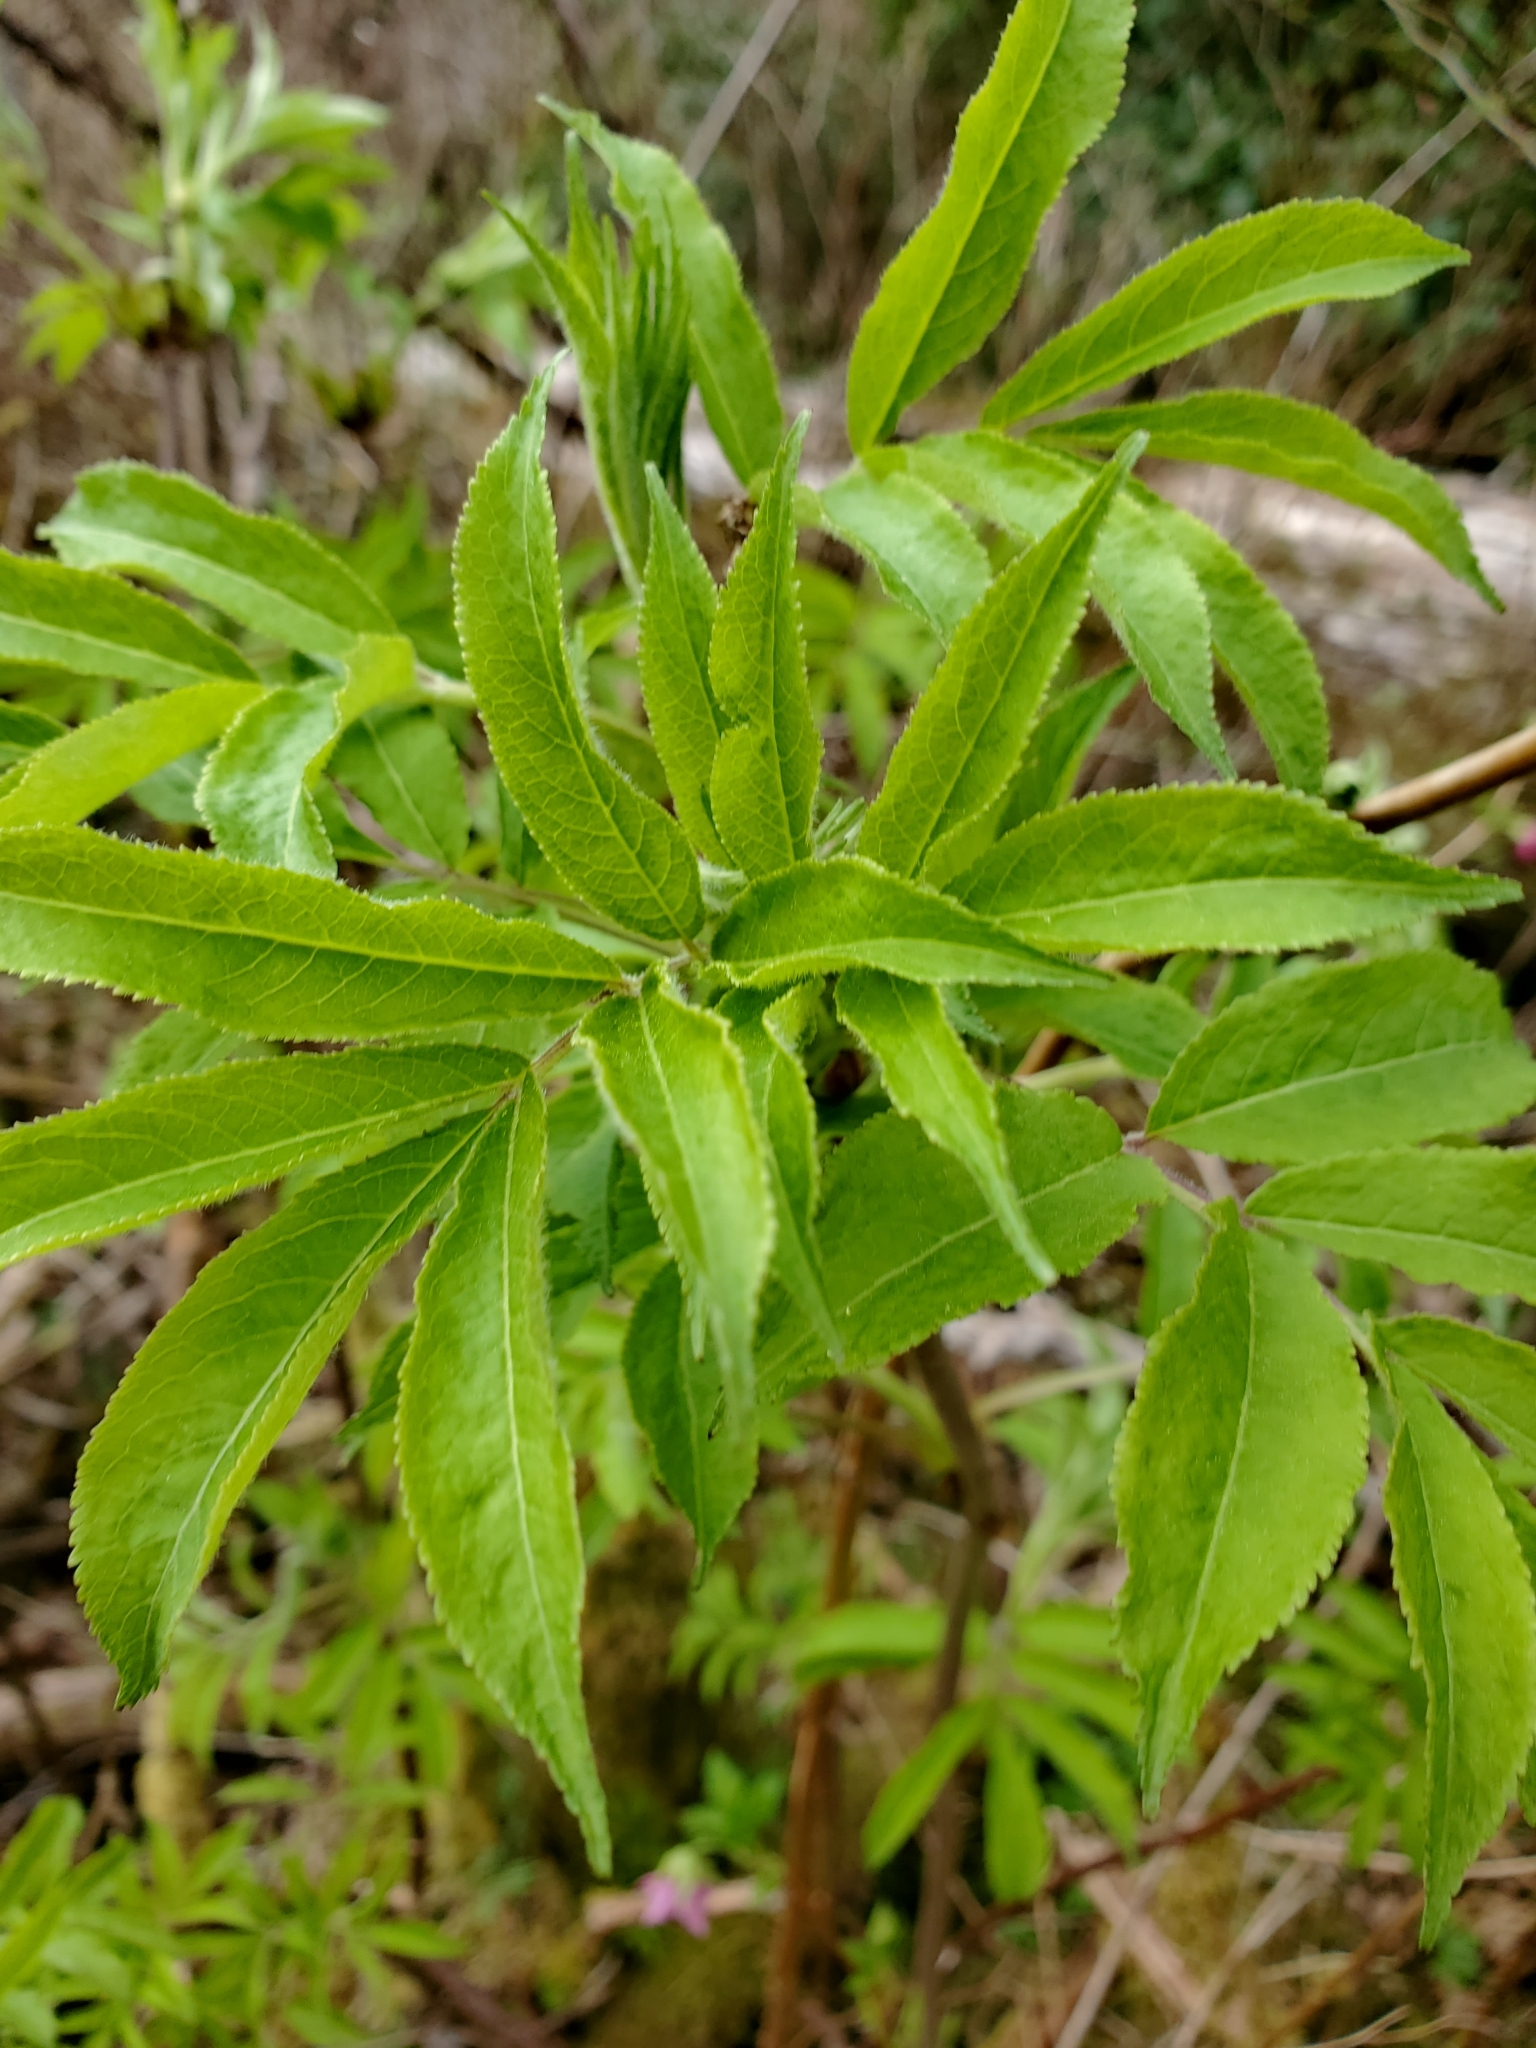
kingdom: Plantae
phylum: Tracheophyta
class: Magnoliopsida
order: Dipsacales
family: Viburnaceae
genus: Sambucus
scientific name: Sambucus racemosa
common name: Red-berried elder
